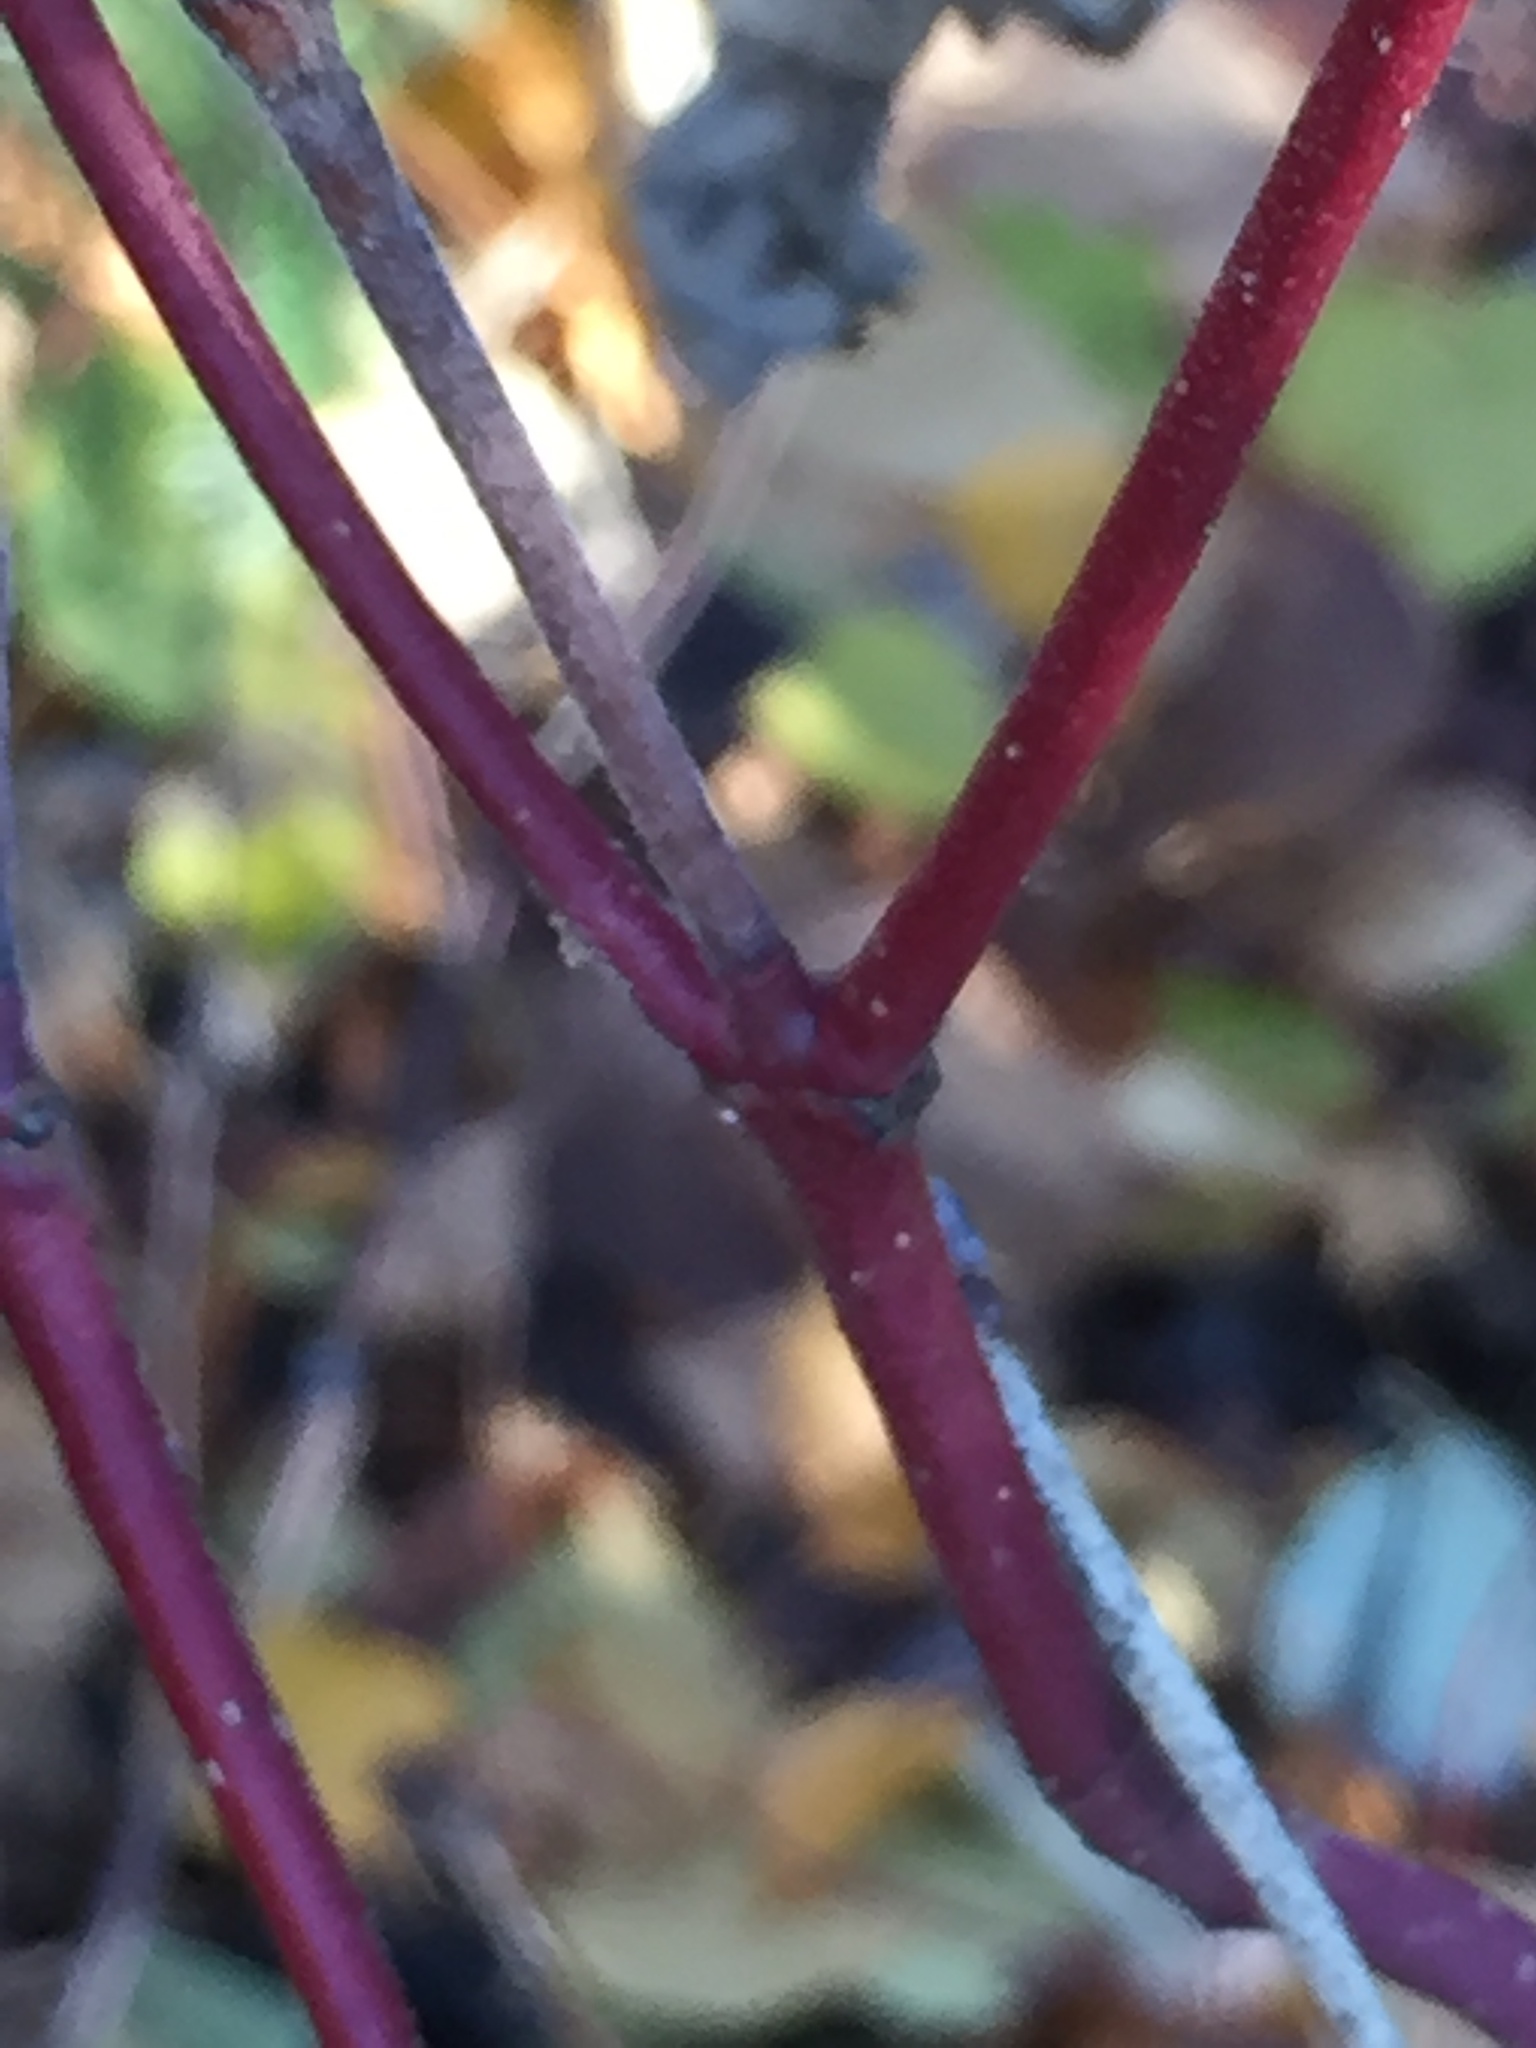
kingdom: Plantae
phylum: Tracheophyta
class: Magnoliopsida
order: Cornales
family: Cornaceae
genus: Cornus
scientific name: Cornus sericea
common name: Red-osier dogwood
